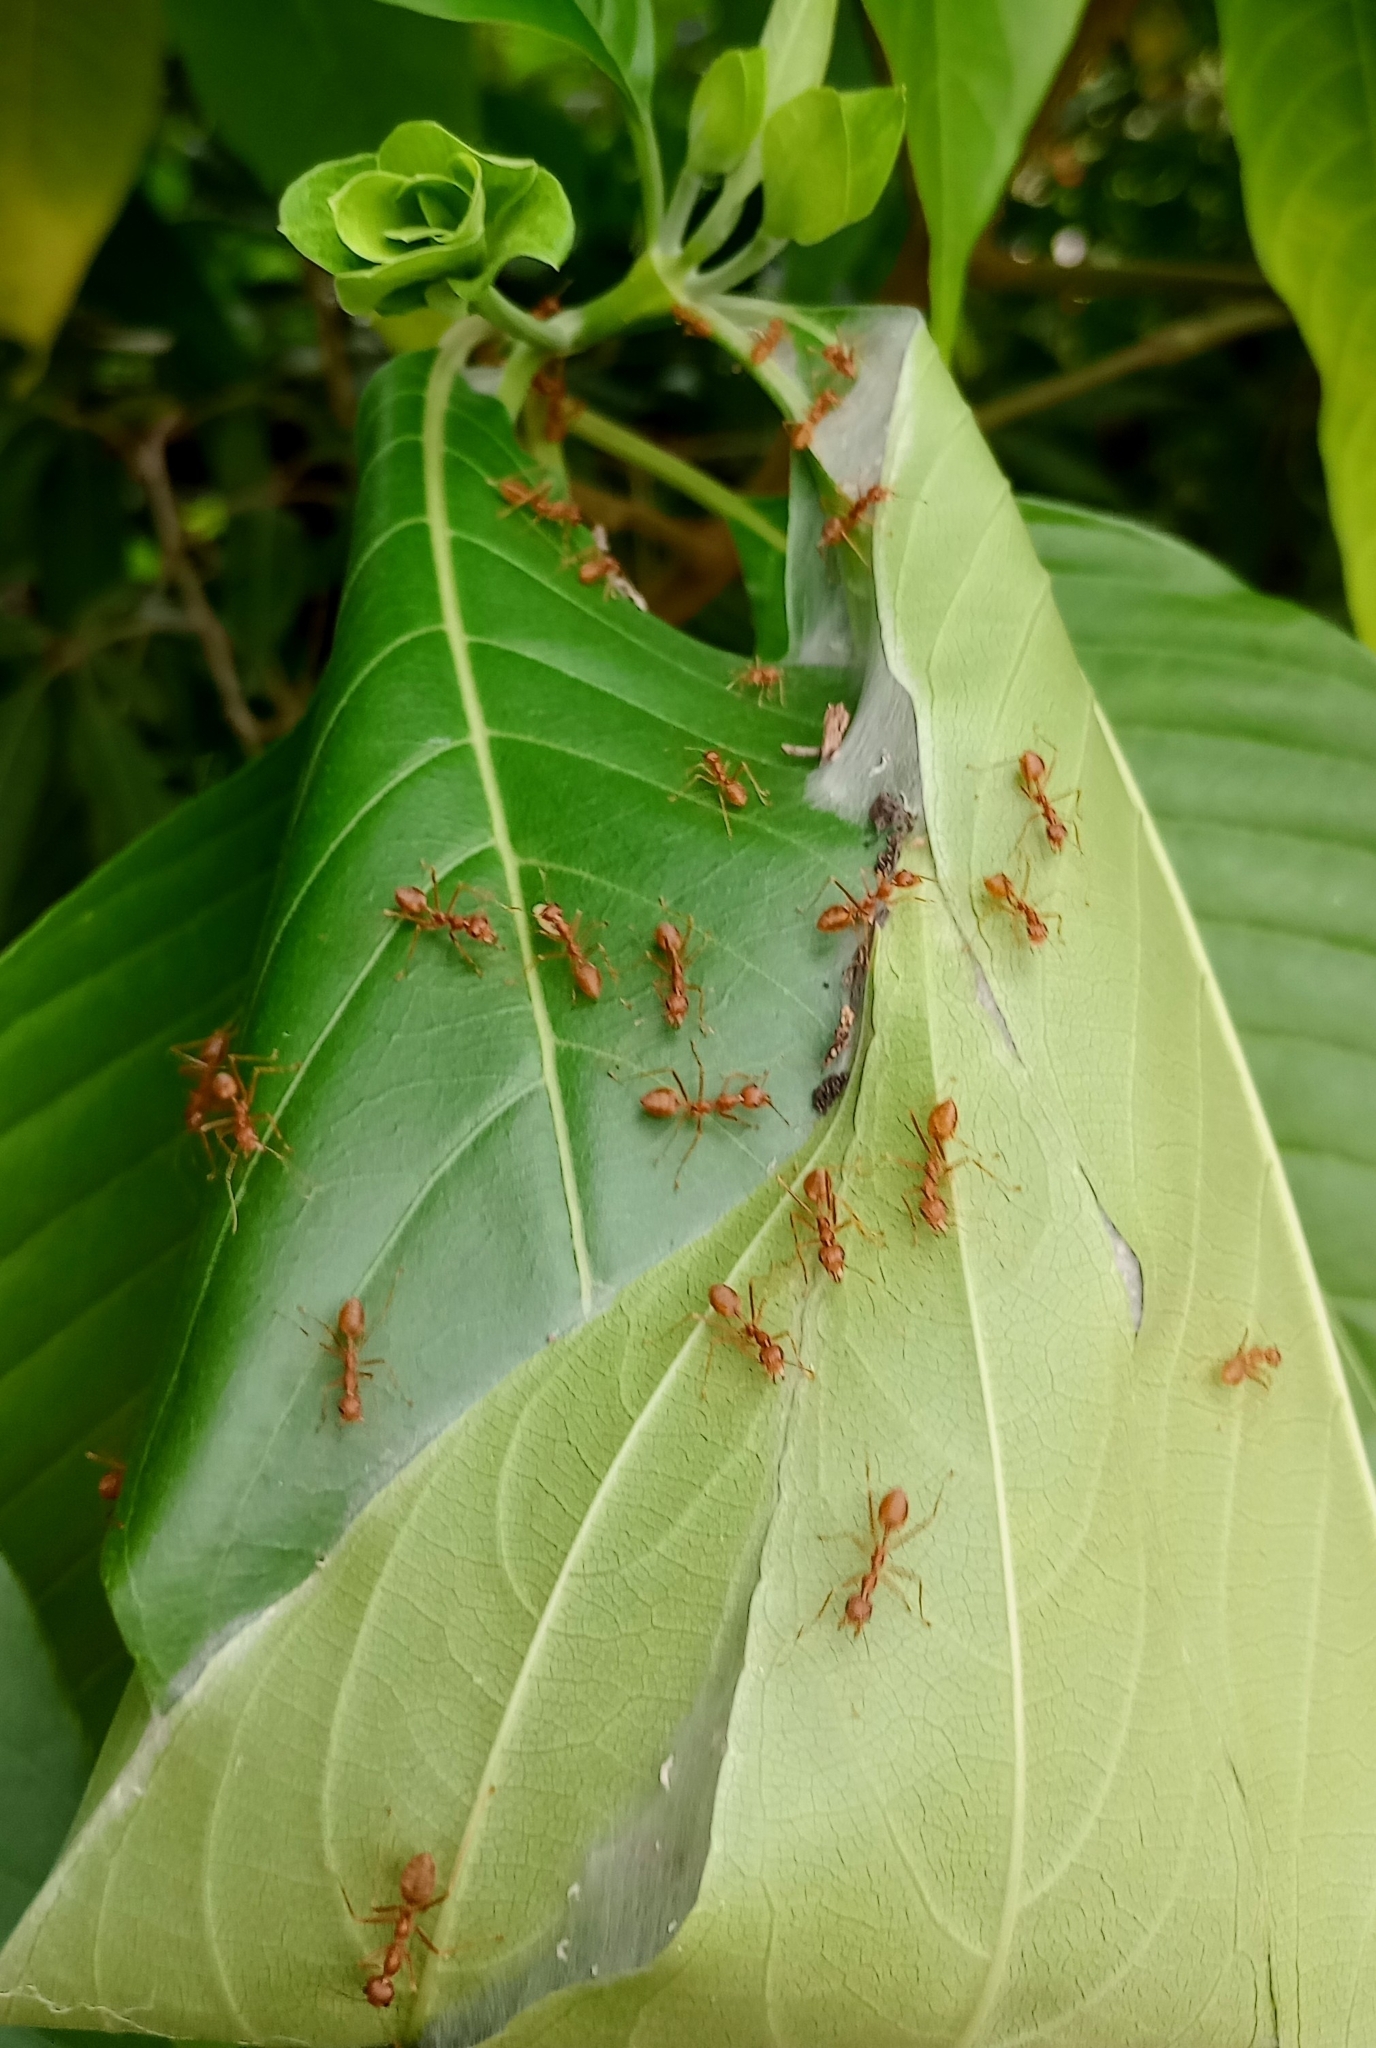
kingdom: Animalia
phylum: Arthropoda
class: Insecta
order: Hymenoptera
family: Formicidae
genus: Oecophylla
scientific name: Oecophylla smaragdina
